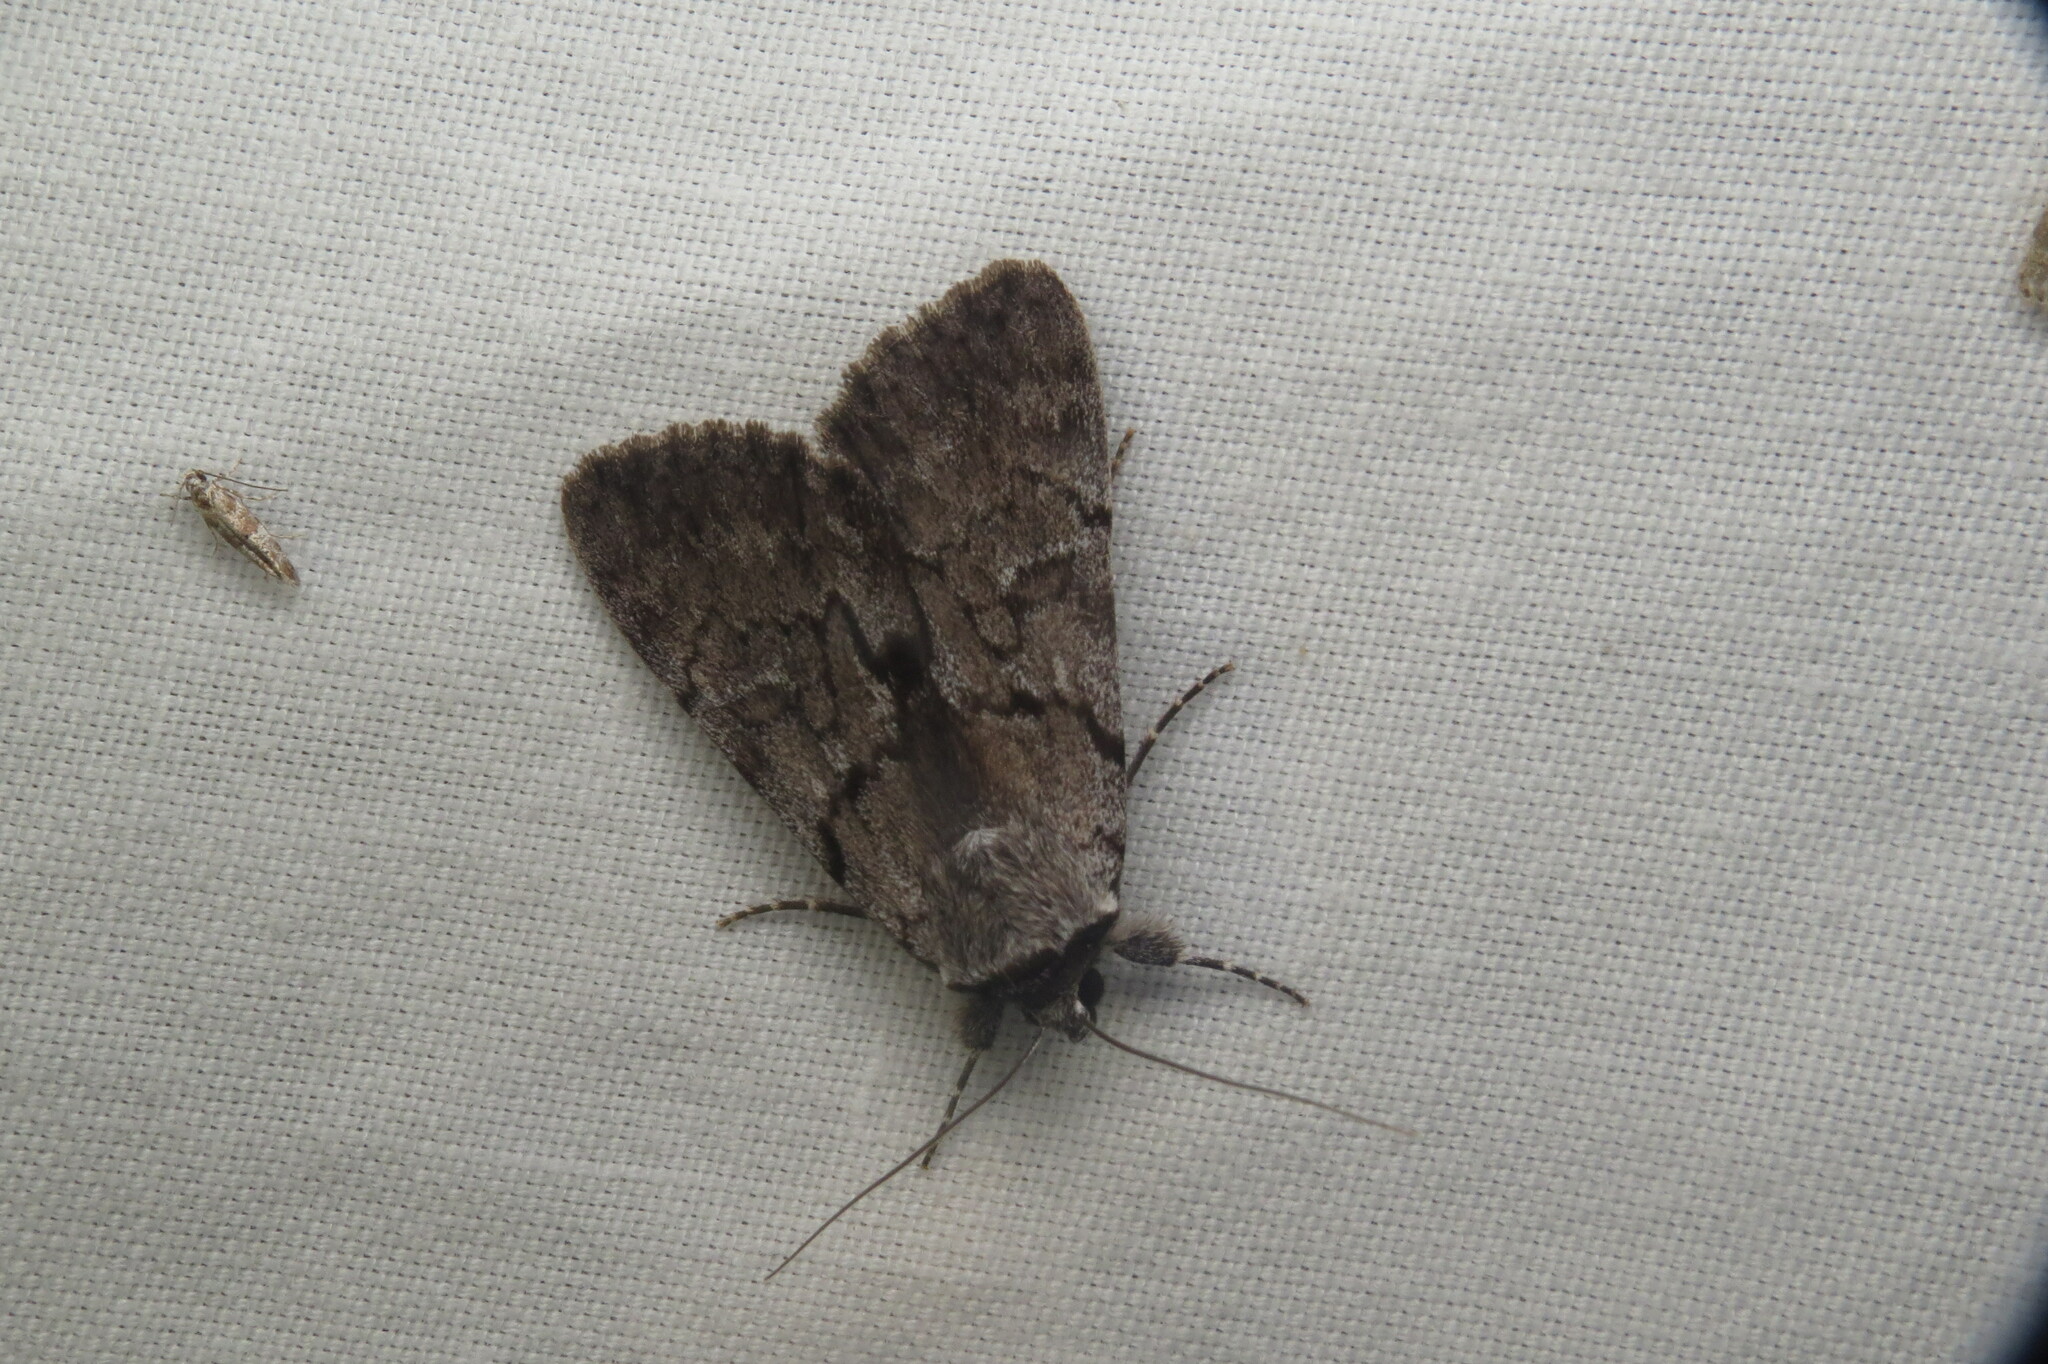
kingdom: Animalia
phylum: Arthropoda
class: Insecta
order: Lepidoptera
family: Erebidae
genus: Catocala
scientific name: Catocala sordida
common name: Sordid underwing
